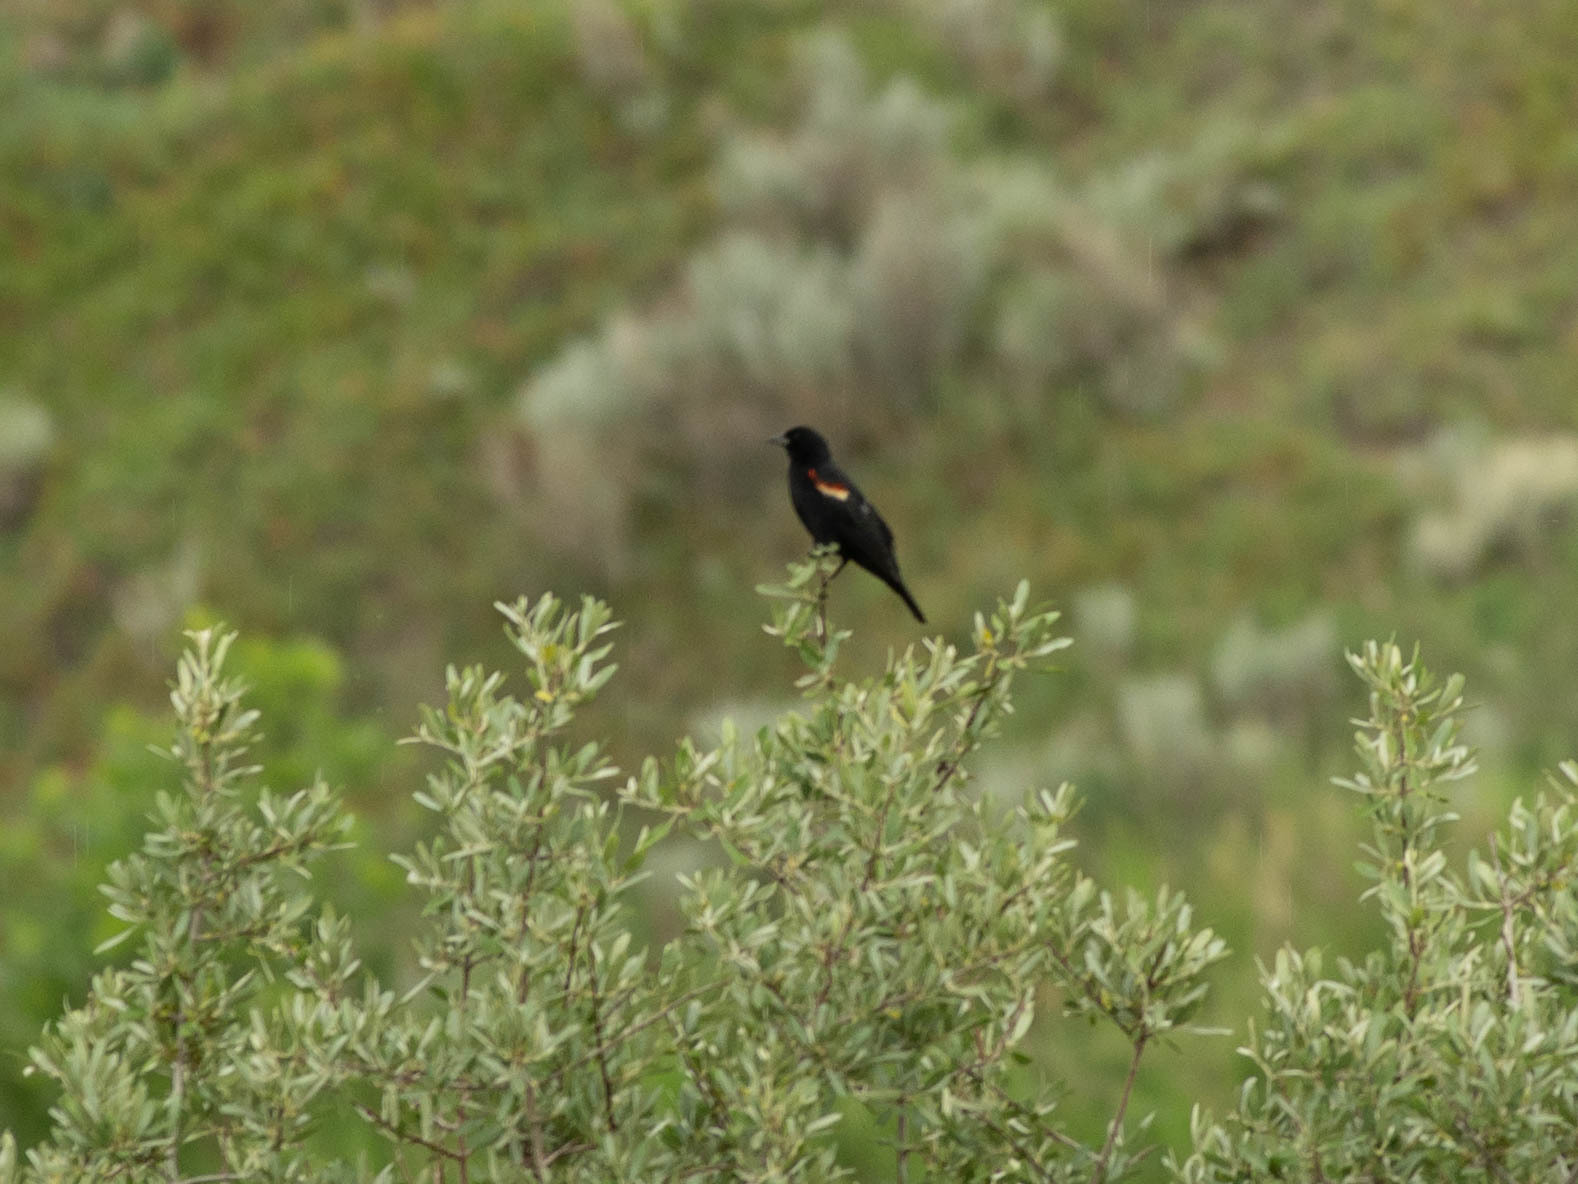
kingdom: Animalia
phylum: Chordata
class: Aves
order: Passeriformes
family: Icteridae
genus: Agelaius
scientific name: Agelaius phoeniceus
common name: Red-winged blackbird
